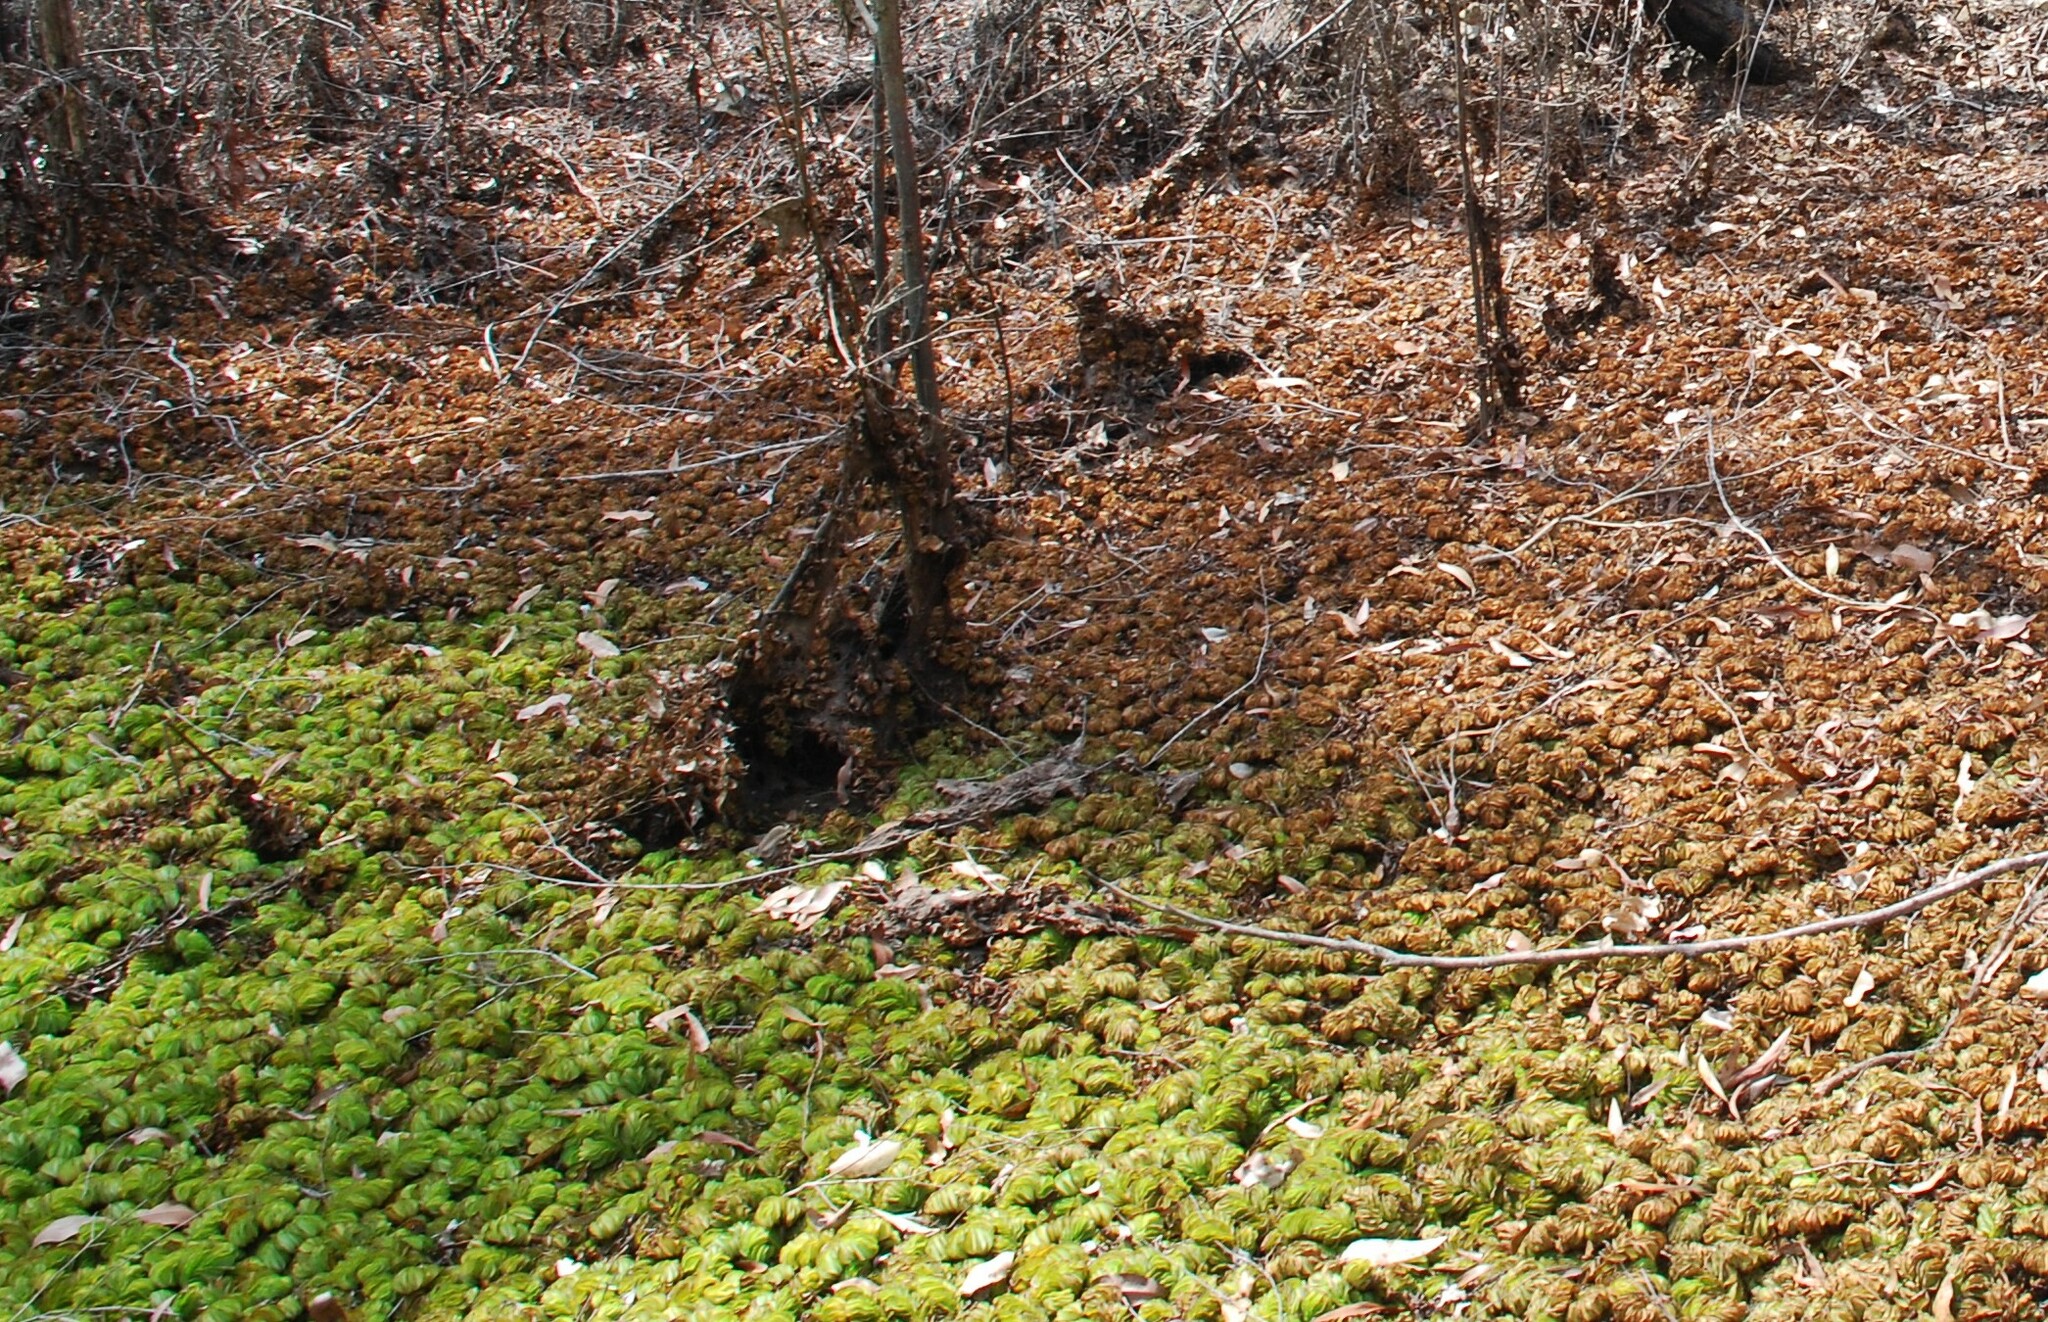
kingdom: Plantae
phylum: Tracheophyta
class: Polypodiopsida
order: Salviniales
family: Salviniaceae
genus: Salvinia
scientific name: Salvinia molesta
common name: Kariba weed
